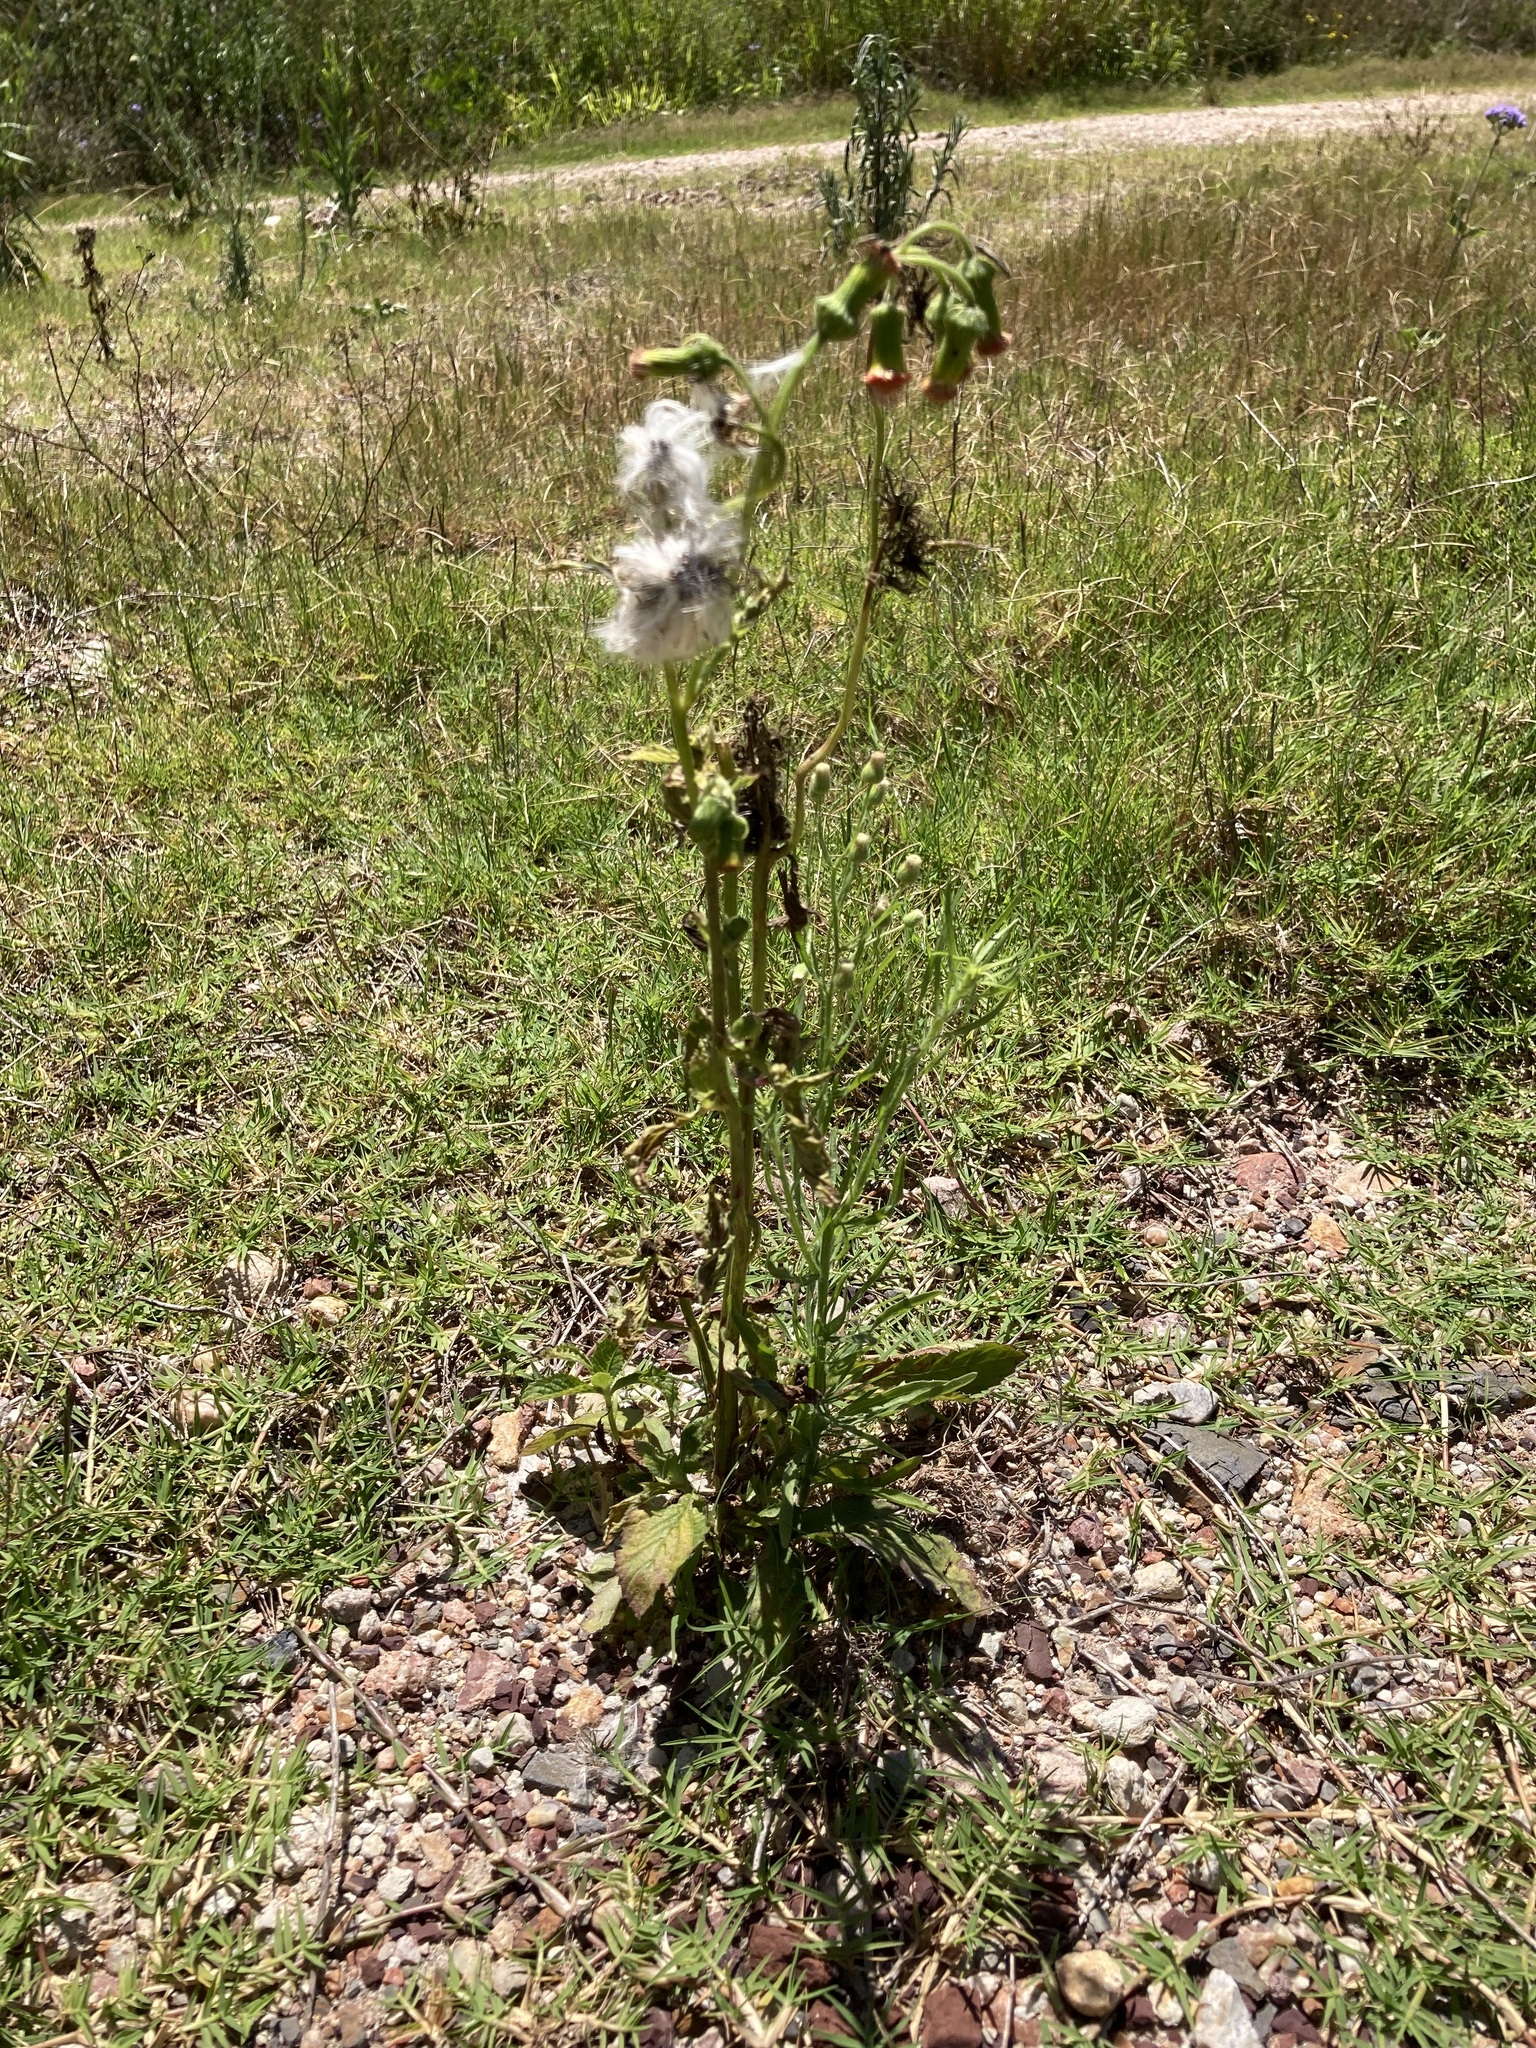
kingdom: Plantae
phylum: Tracheophyta
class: Magnoliopsida
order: Asterales
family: Asteraceae
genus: Crassocephalum
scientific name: Crassocephalum crepidioides
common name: Redflower ragleaf
